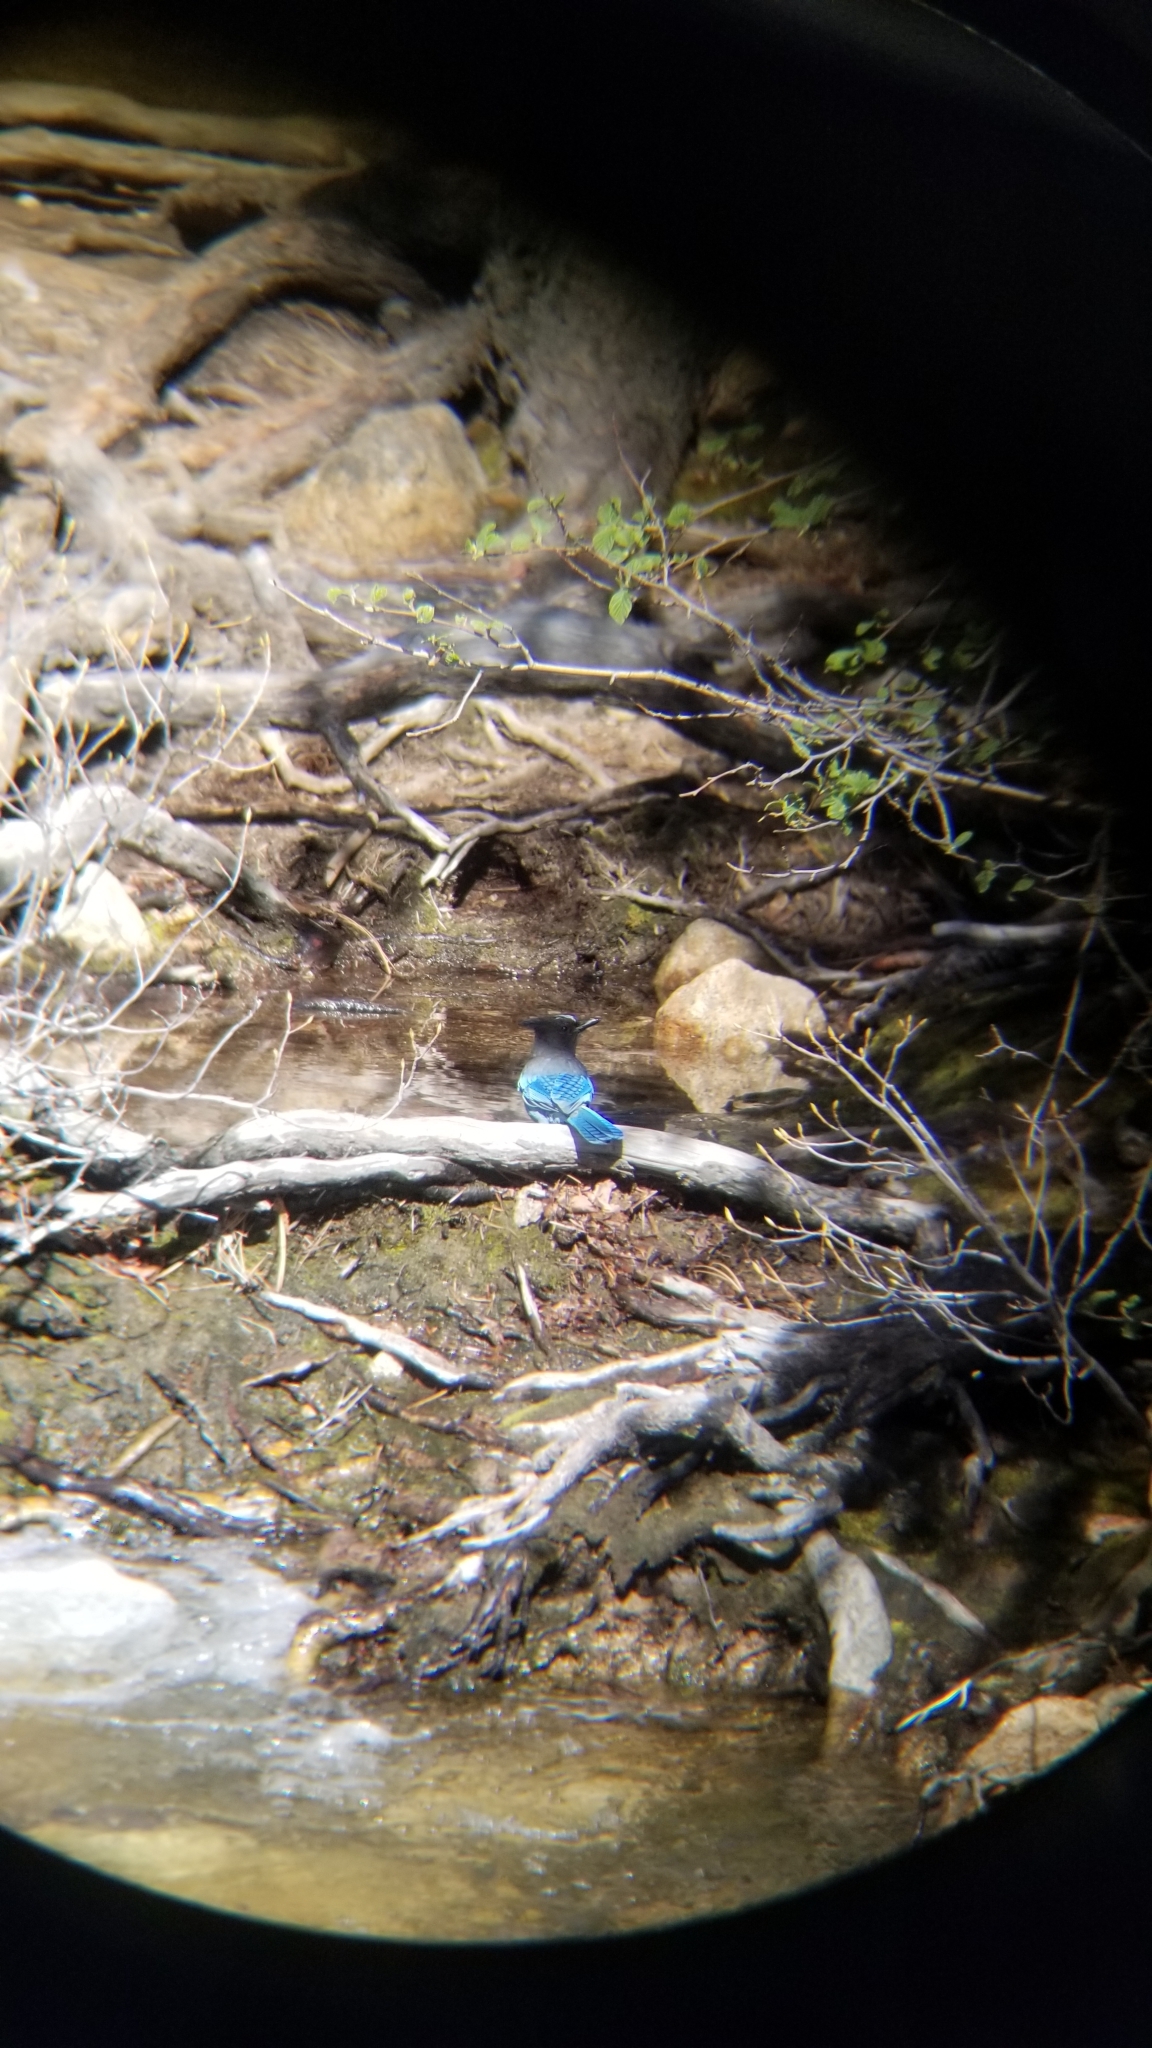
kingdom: Animalia
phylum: Chordata
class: Aves
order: Passeriformes
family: Corvidae
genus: Cyanocitta
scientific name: Cyanocitta stelleri
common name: Steller's jay
